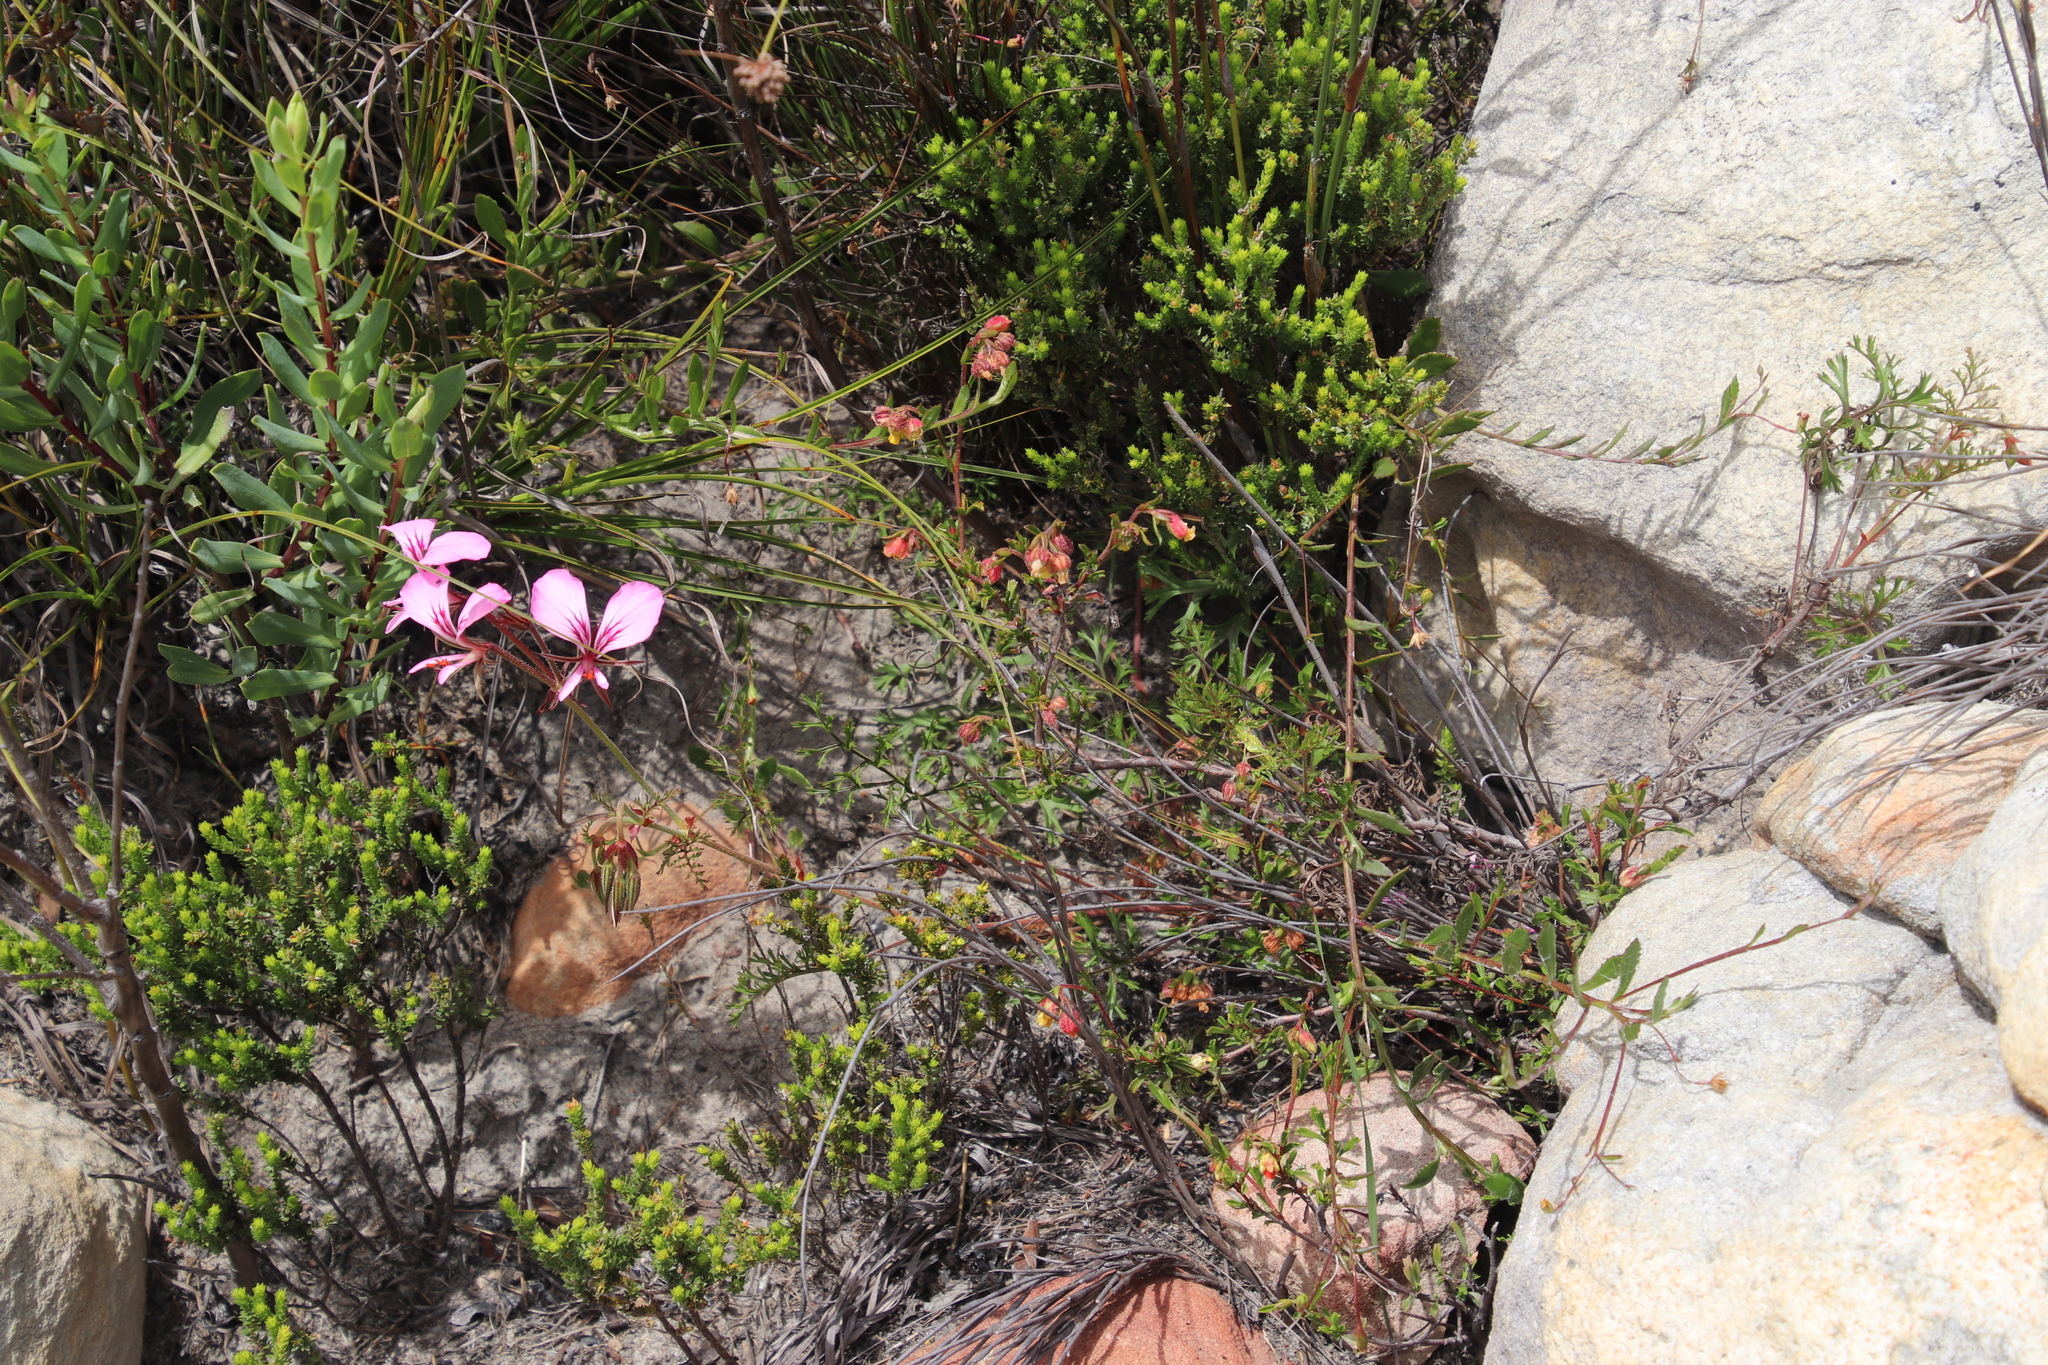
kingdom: Plantae
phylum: Tracheophyta
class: Magnoliopsida
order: Malvales
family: Malvaceae
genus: Hermannia
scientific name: Hermannia rudis
